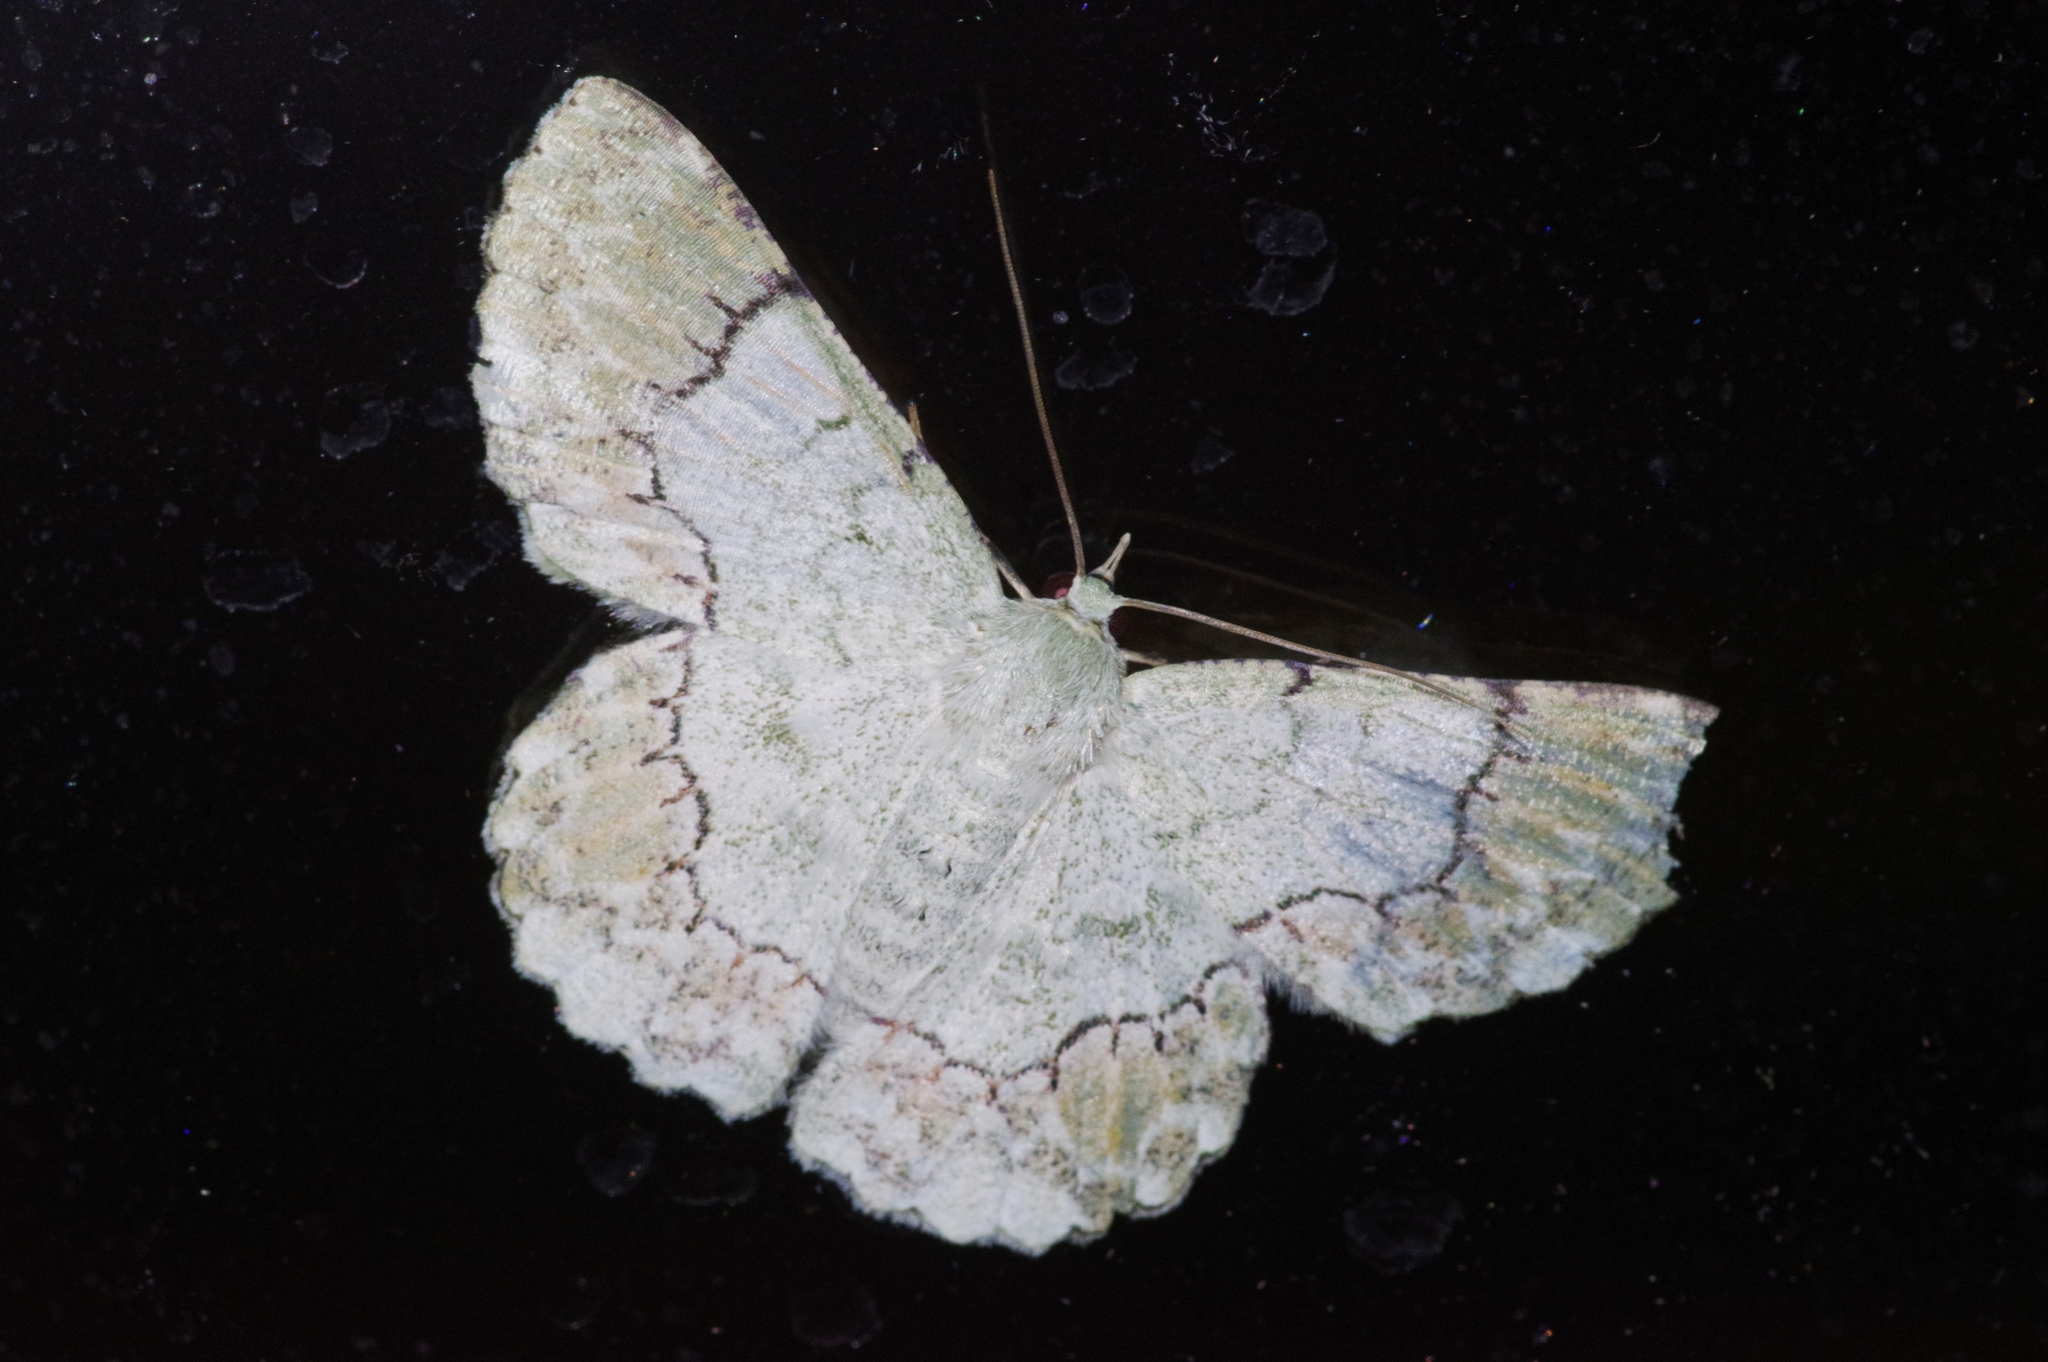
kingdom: Animalia
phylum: Arthropoda
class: Insecta
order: Lepidoptera
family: Geometridae
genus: Pingasa
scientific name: Pingasa ruginaria
